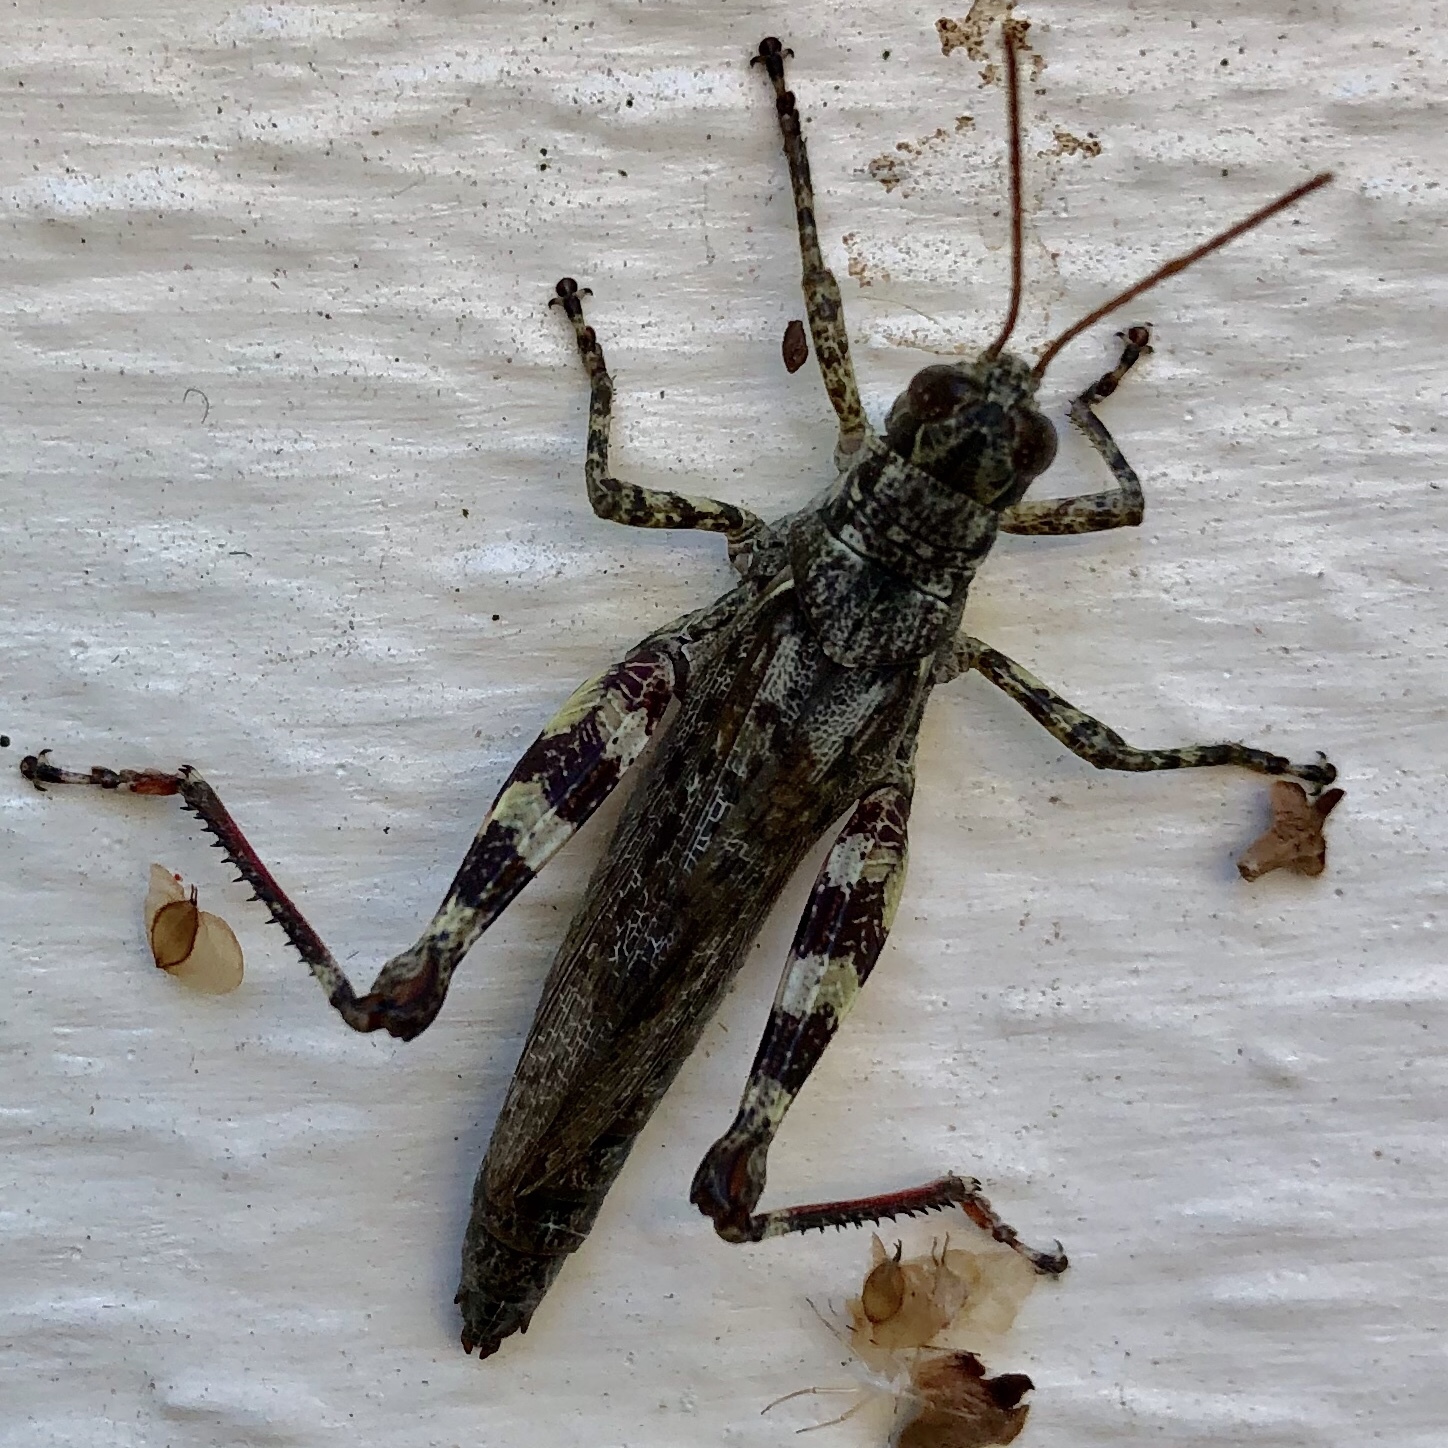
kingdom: Animalia
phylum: Arthropoda
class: Insecta
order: Orthoptera
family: Acrididae
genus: Melanoplus
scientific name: Melanoplus punctulatus
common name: Pine-tree spur-throat grasshopper
